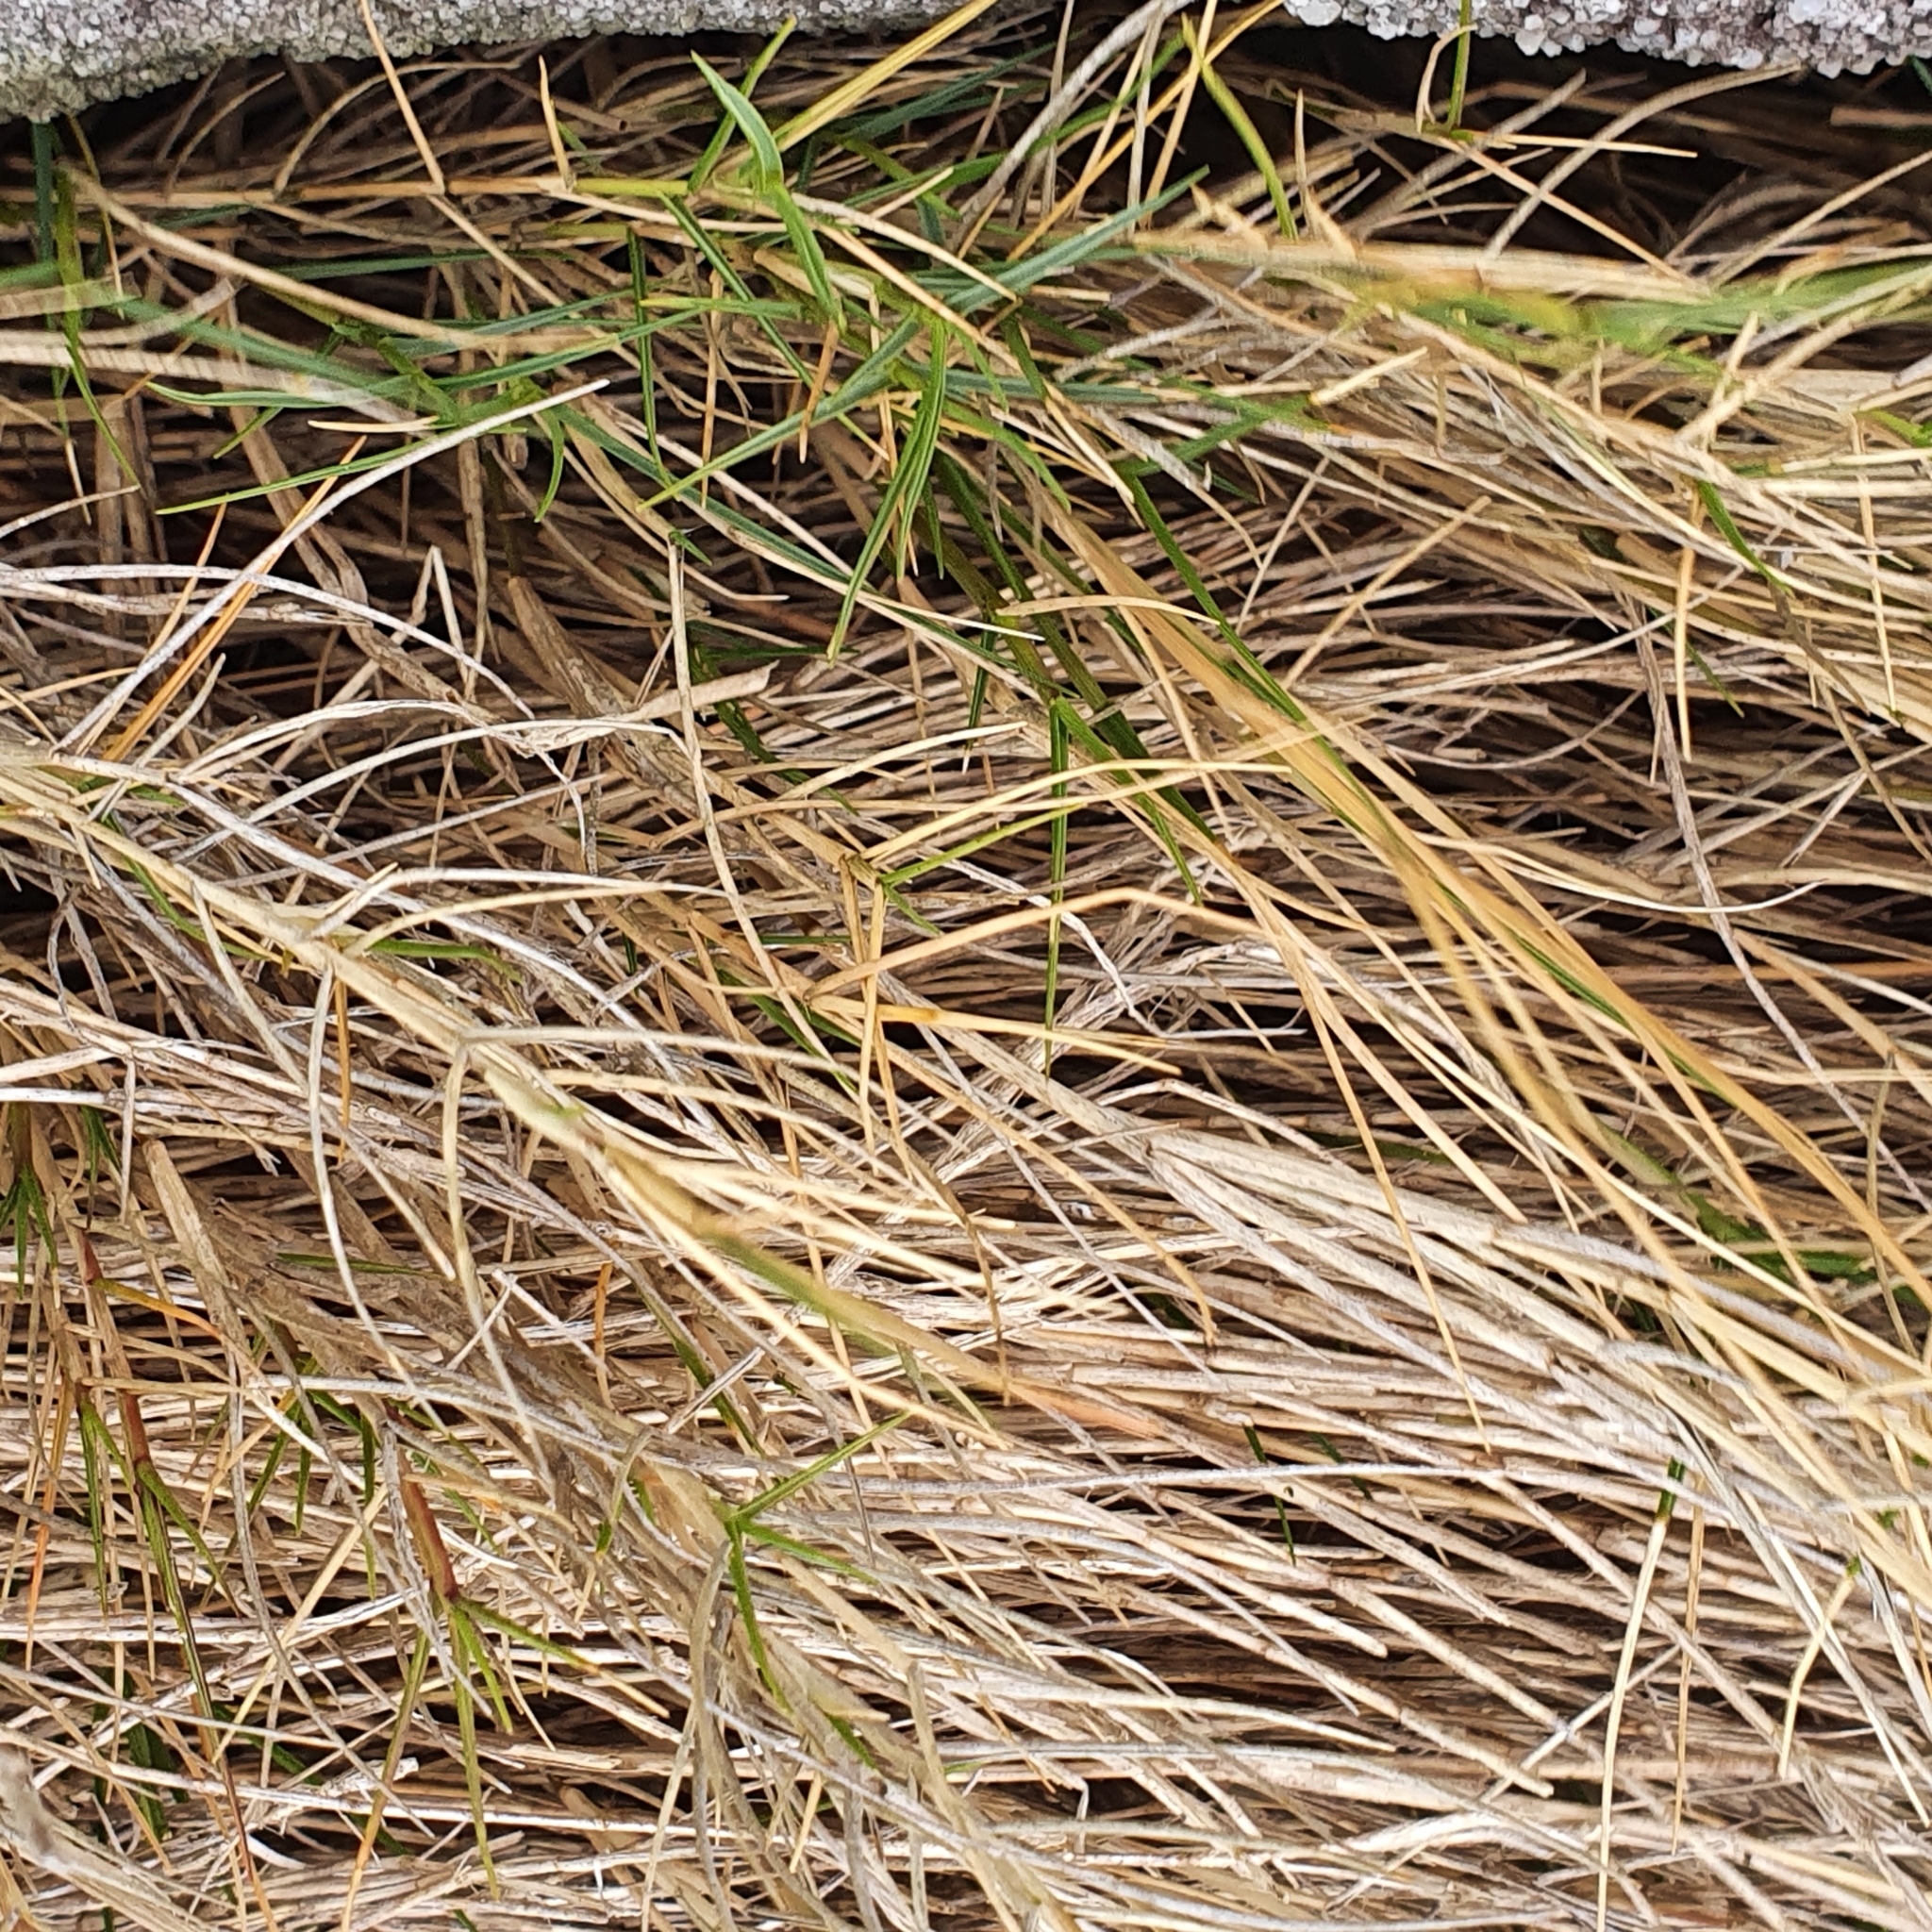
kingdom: Plantae
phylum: Tracheophyta
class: Liliopsida
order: Poales
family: Poaceae
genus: Sporobolus
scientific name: Sporobolus virginicus
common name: Beach dropseed
